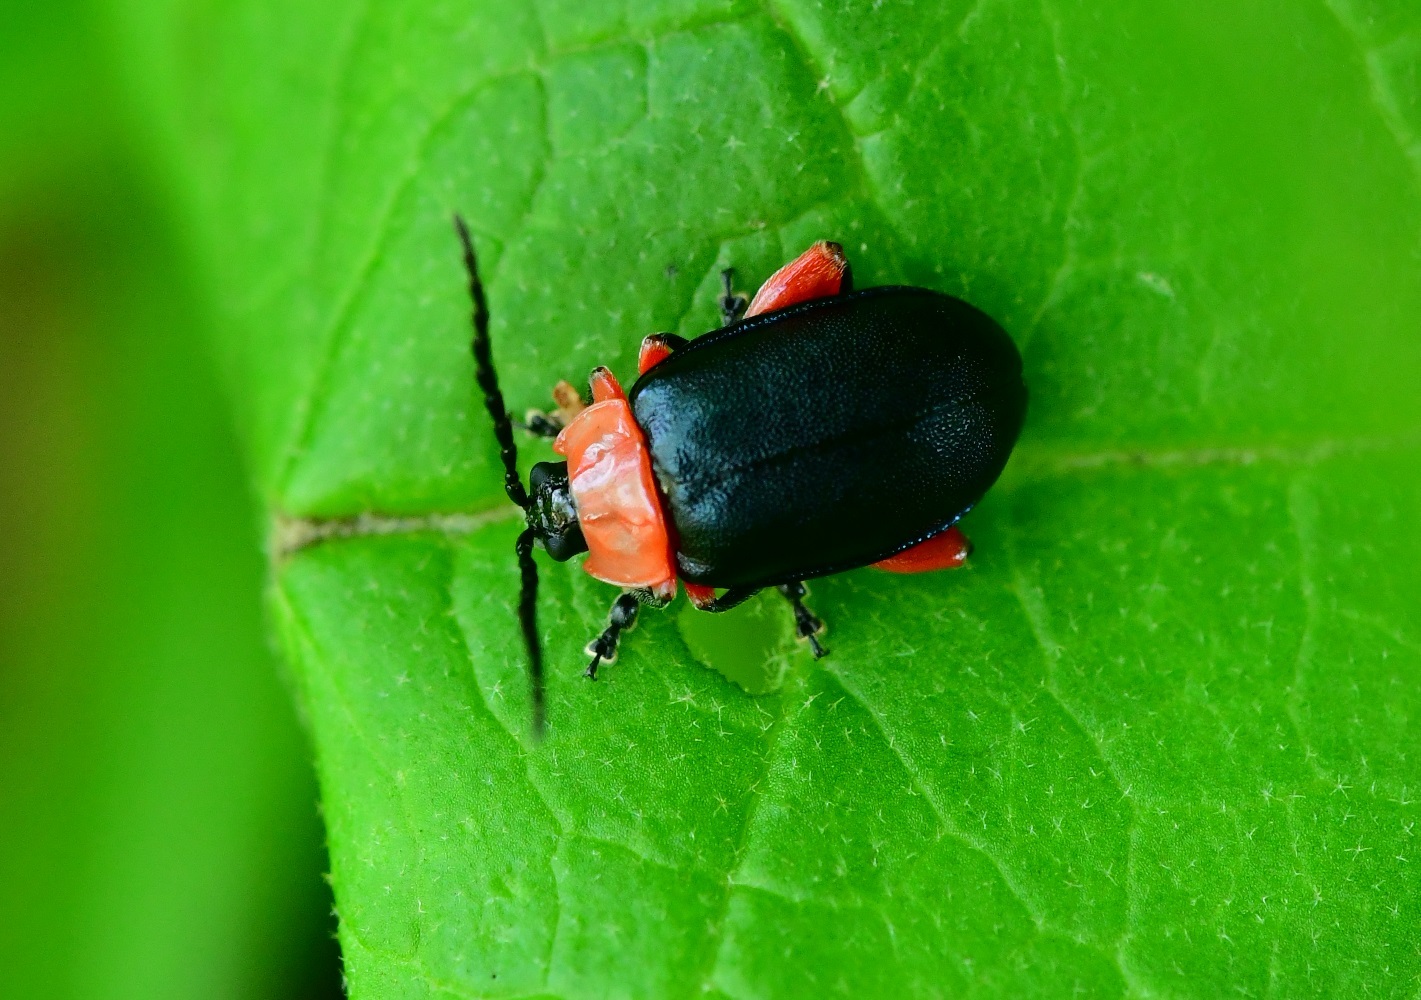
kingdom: Animalia
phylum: Arthropoda
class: Insecta
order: Coleoptera
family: Chrysomelidae
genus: Asphaera
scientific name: Asphaera abdominalis
